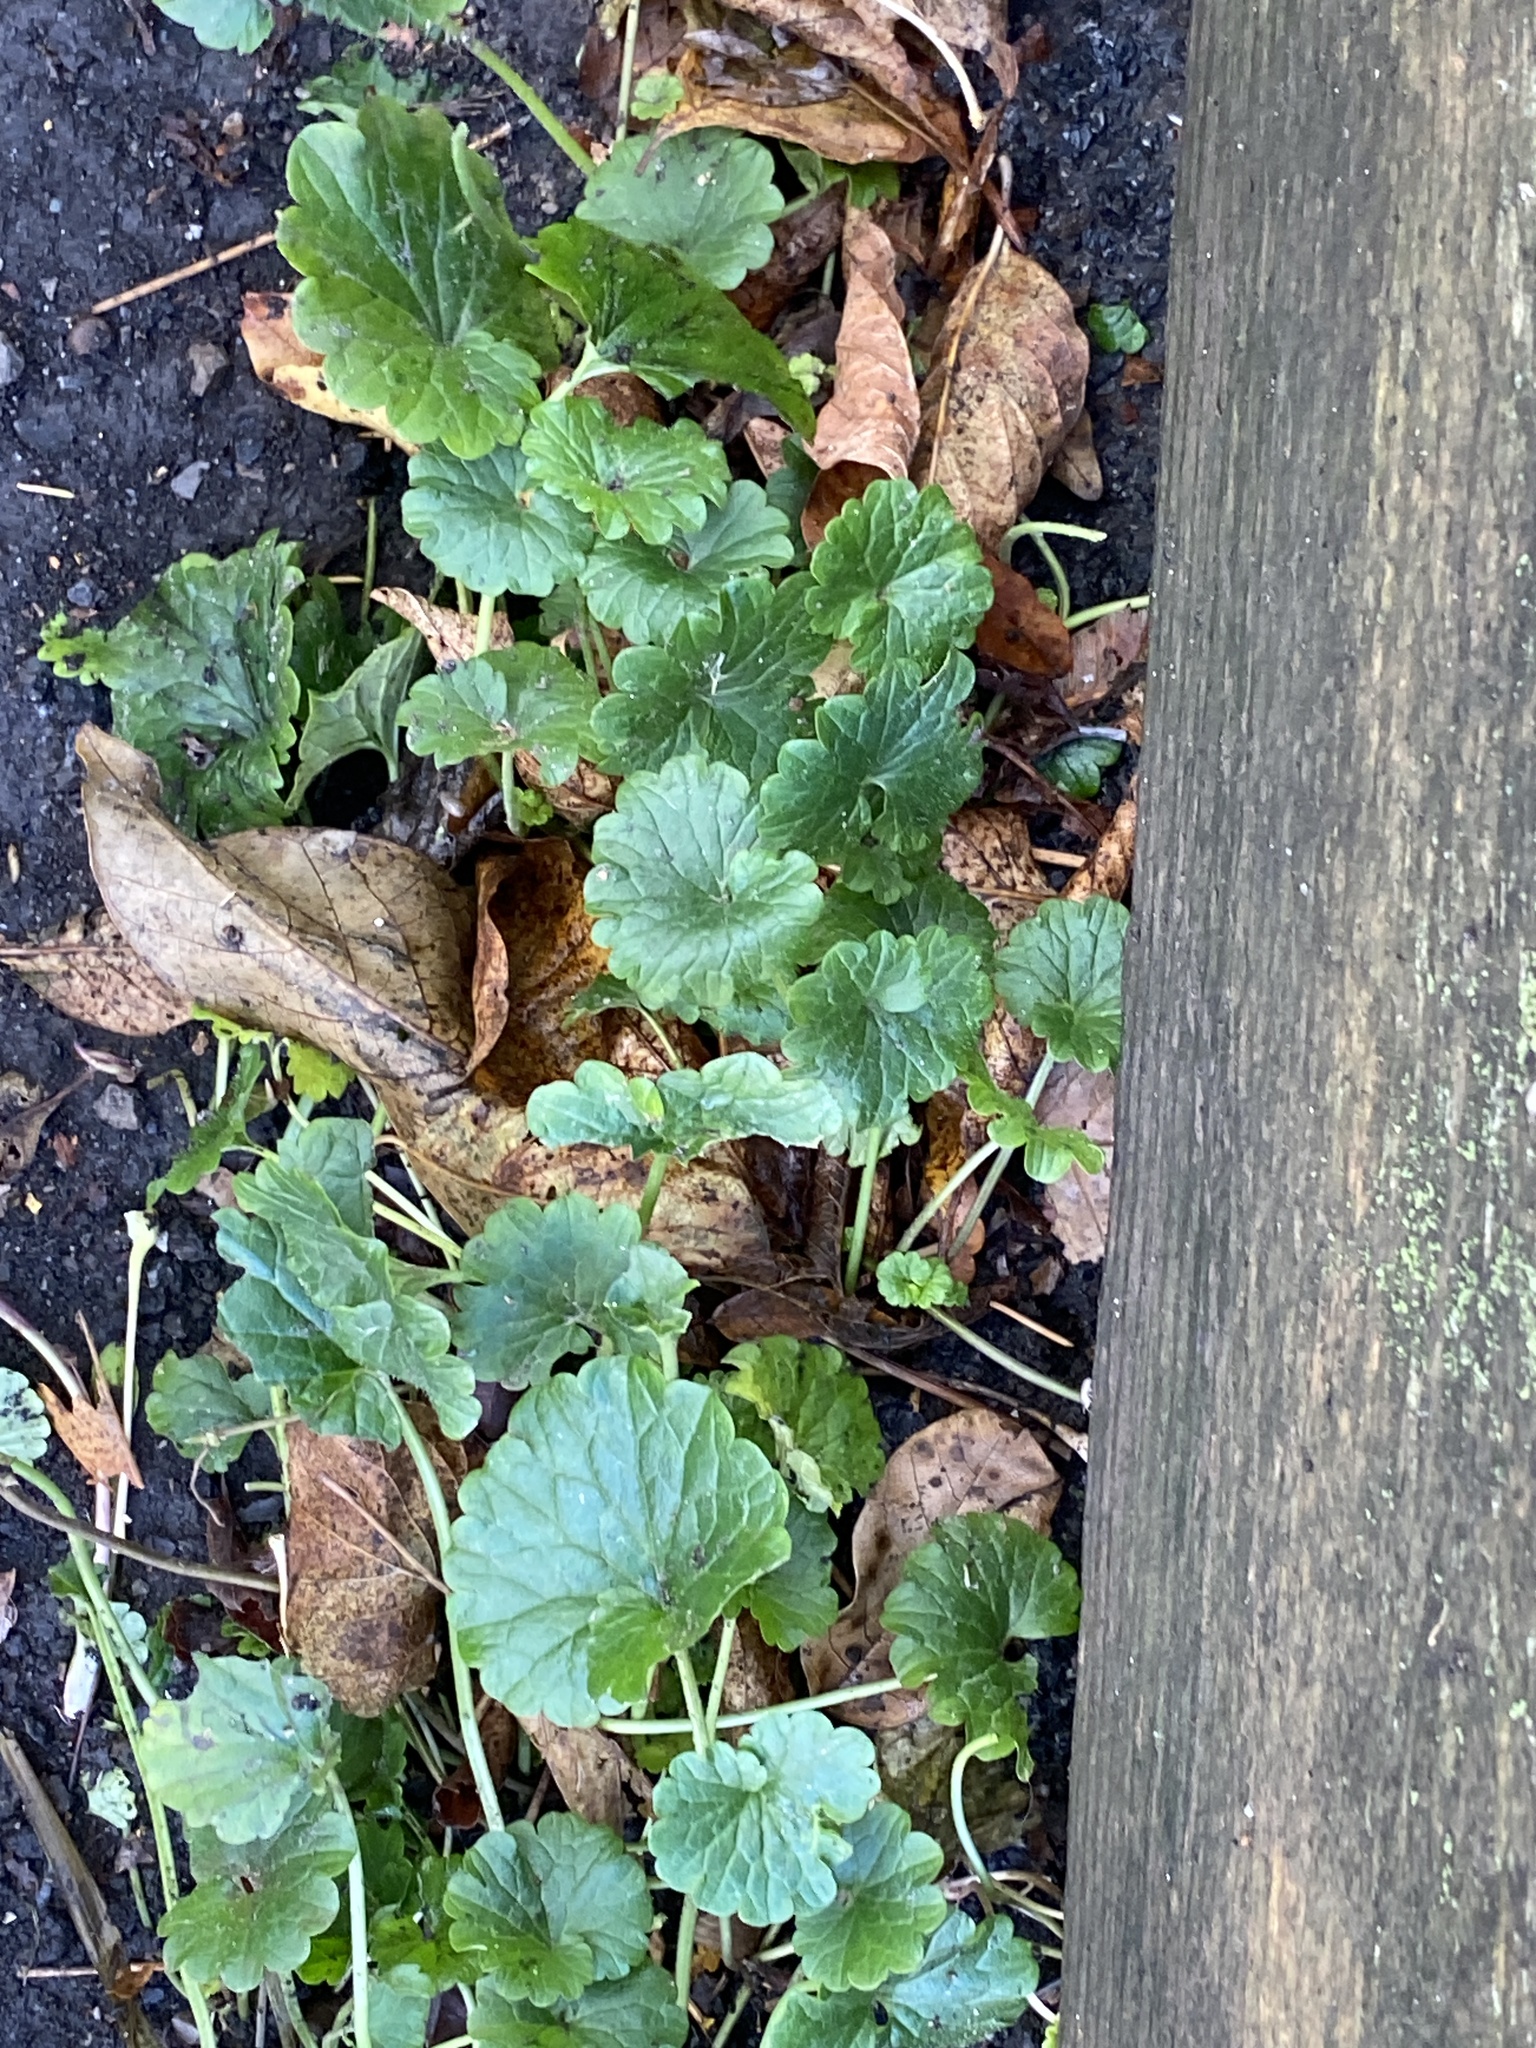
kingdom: Plantae
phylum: Tracheophyta
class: Magnoliopsida
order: Lamiales
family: Lamiaceae
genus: Glechoma
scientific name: Glechoma hederacea
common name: Ground ivy
